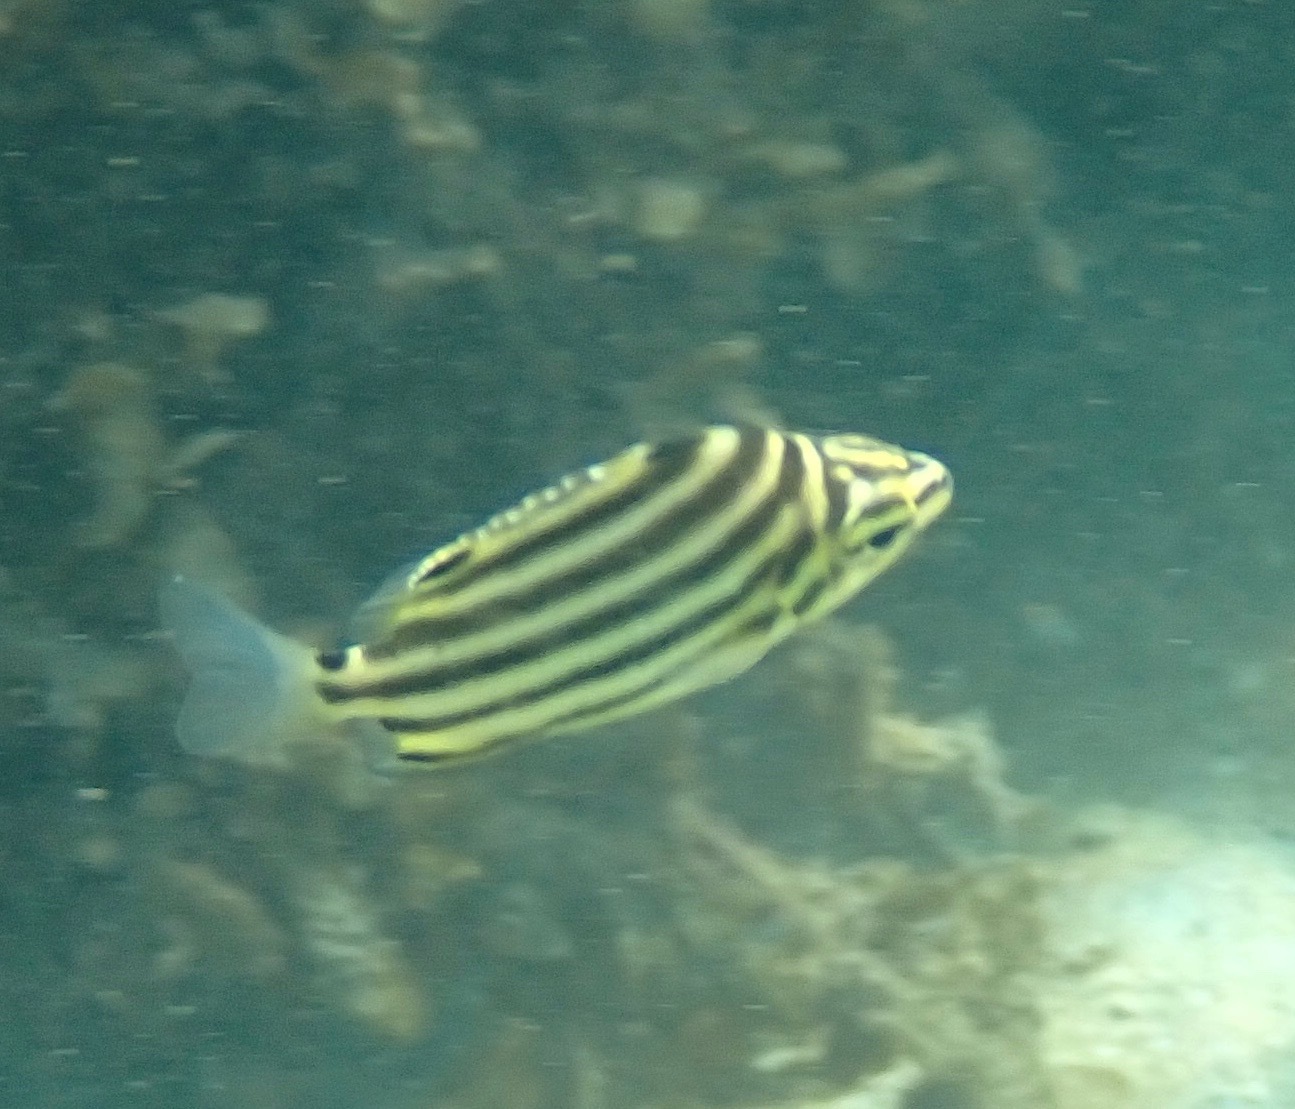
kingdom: Animalia
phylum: Chordata
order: Perciformes
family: Kyphosidae
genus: Microcanthus
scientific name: Microcanthus joyceae
